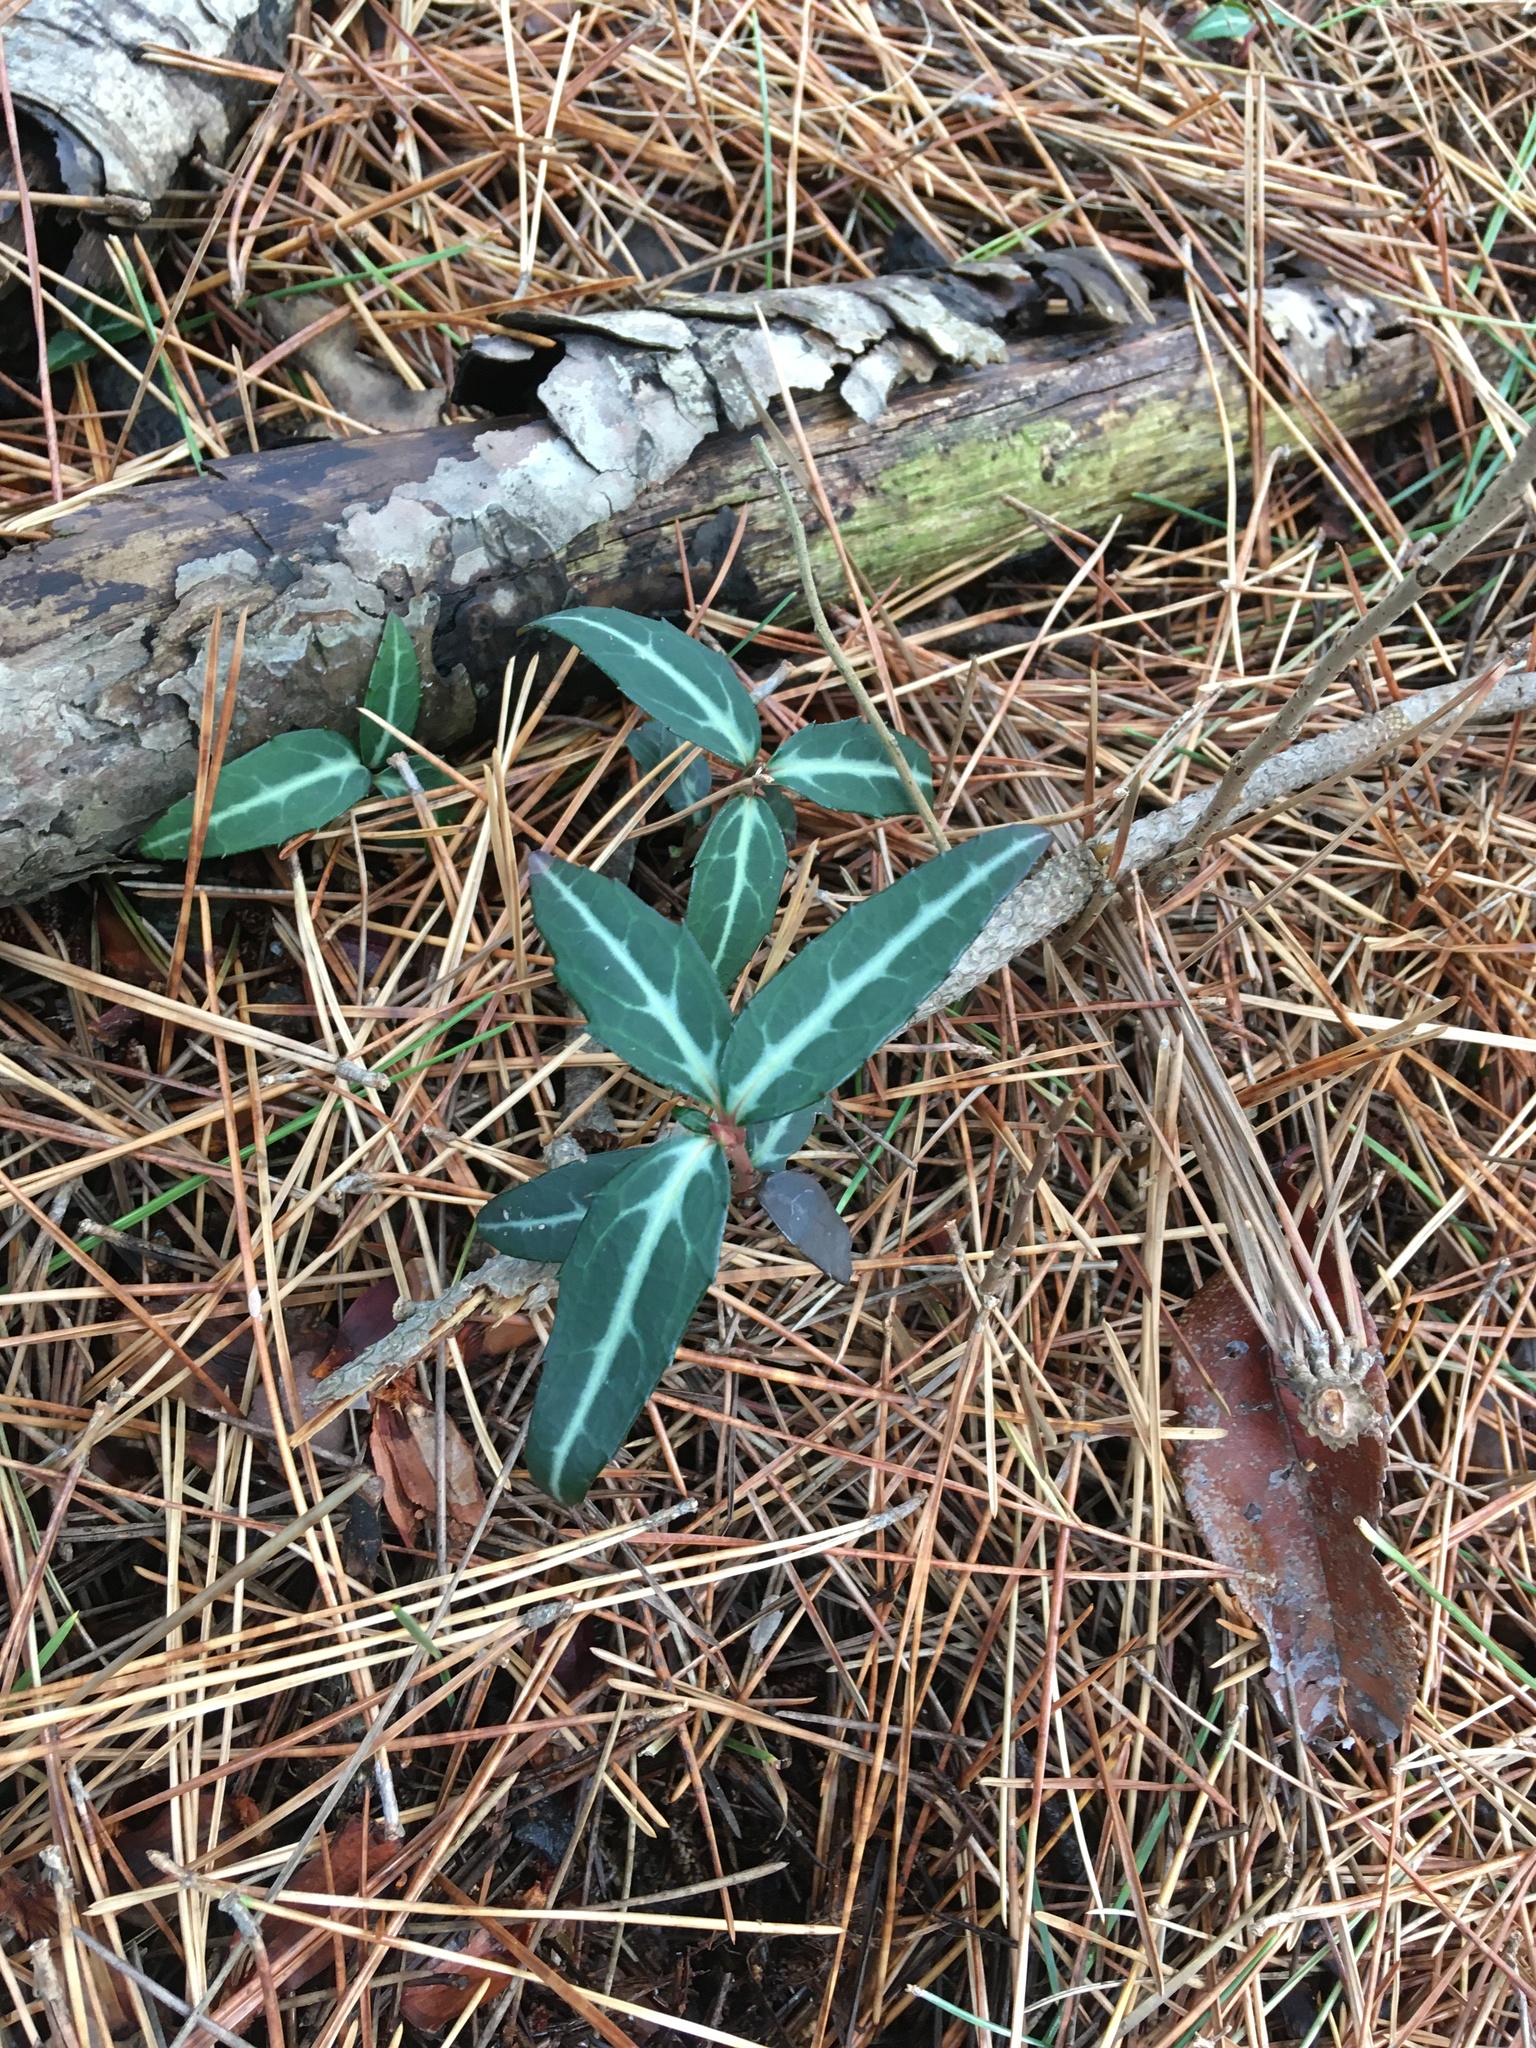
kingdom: Plantae
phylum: Tracheophyta
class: Magnoliopsida
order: Ericales
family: Ericaceae
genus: Chimaphila
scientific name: Chimaphila maculata
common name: Spotted pipsissewa
